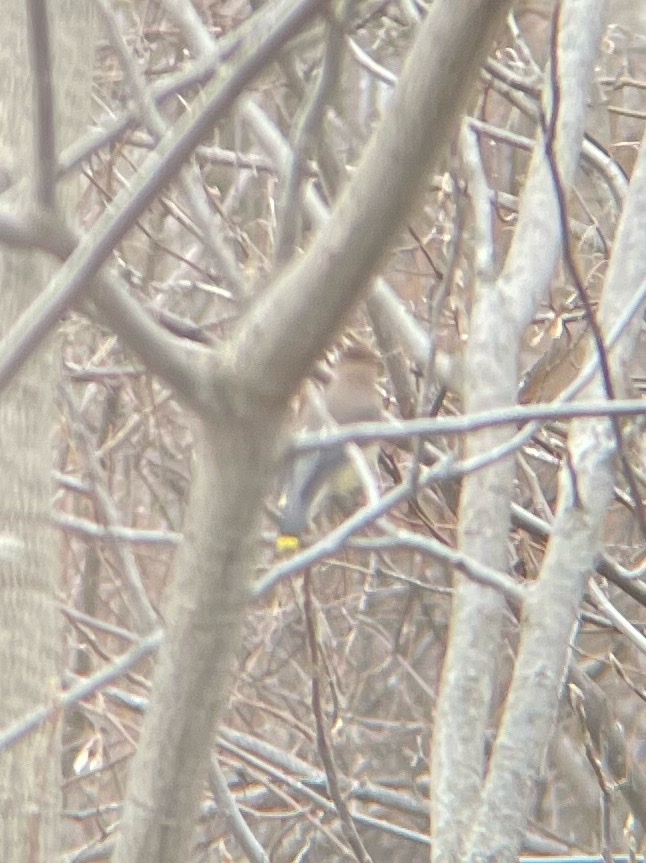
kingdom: Animalia
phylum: Chordata
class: Aves
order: Passeriformes
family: Bombycillidae
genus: Bombycilla
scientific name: Bombycilla cedrorum
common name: Cedar waxwing
